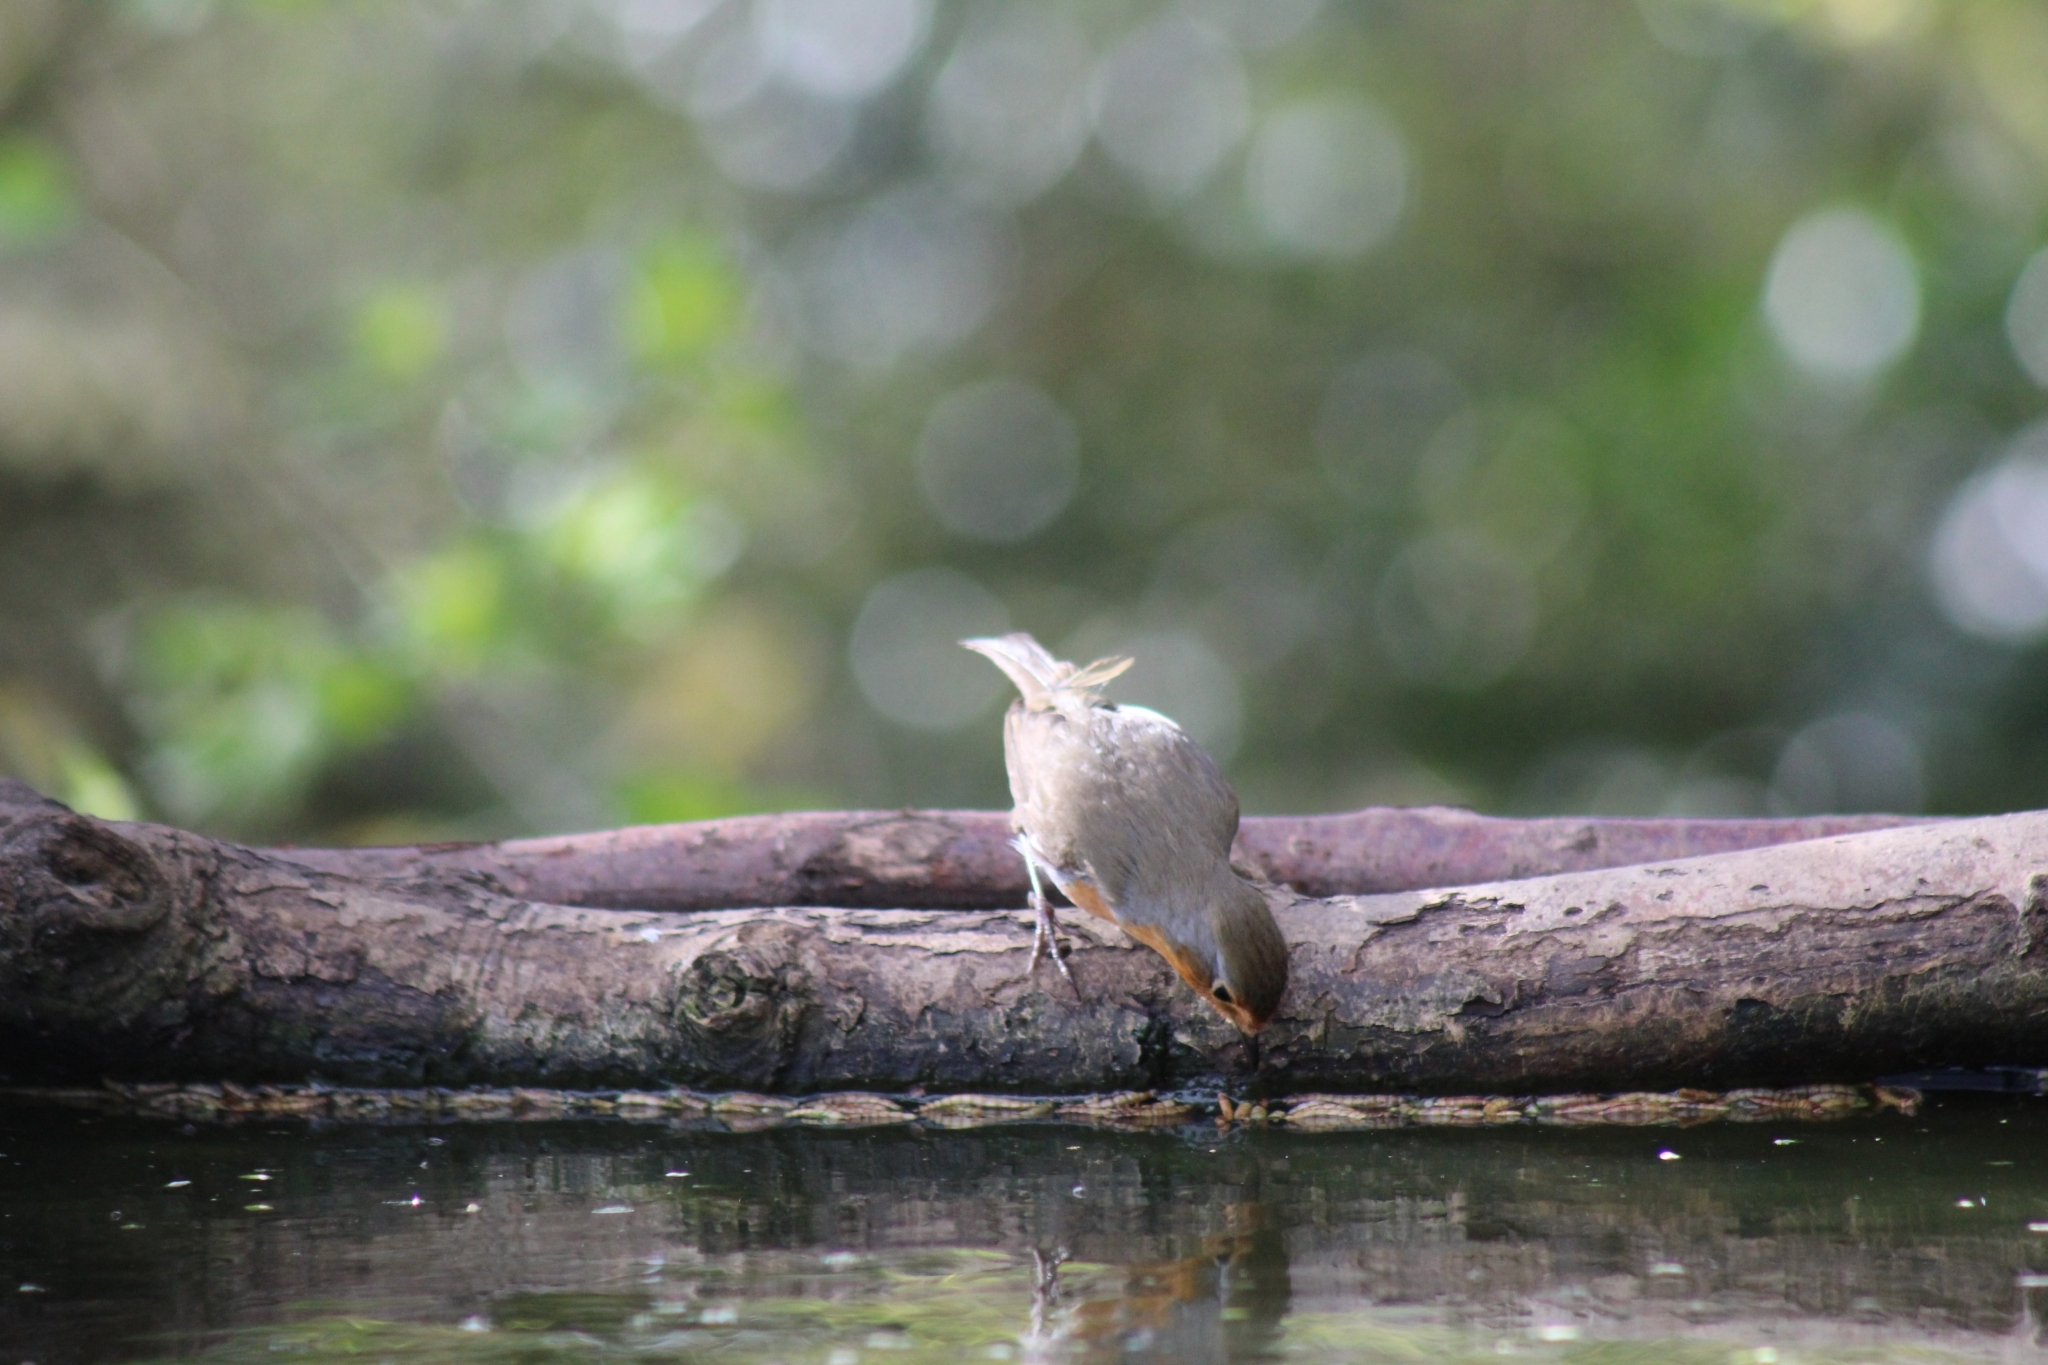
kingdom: Animalia
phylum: Chordata
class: Aves
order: Passeriformes
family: Muscicapidae
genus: Erithacus
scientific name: Erithacus rubecula
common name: European robin
